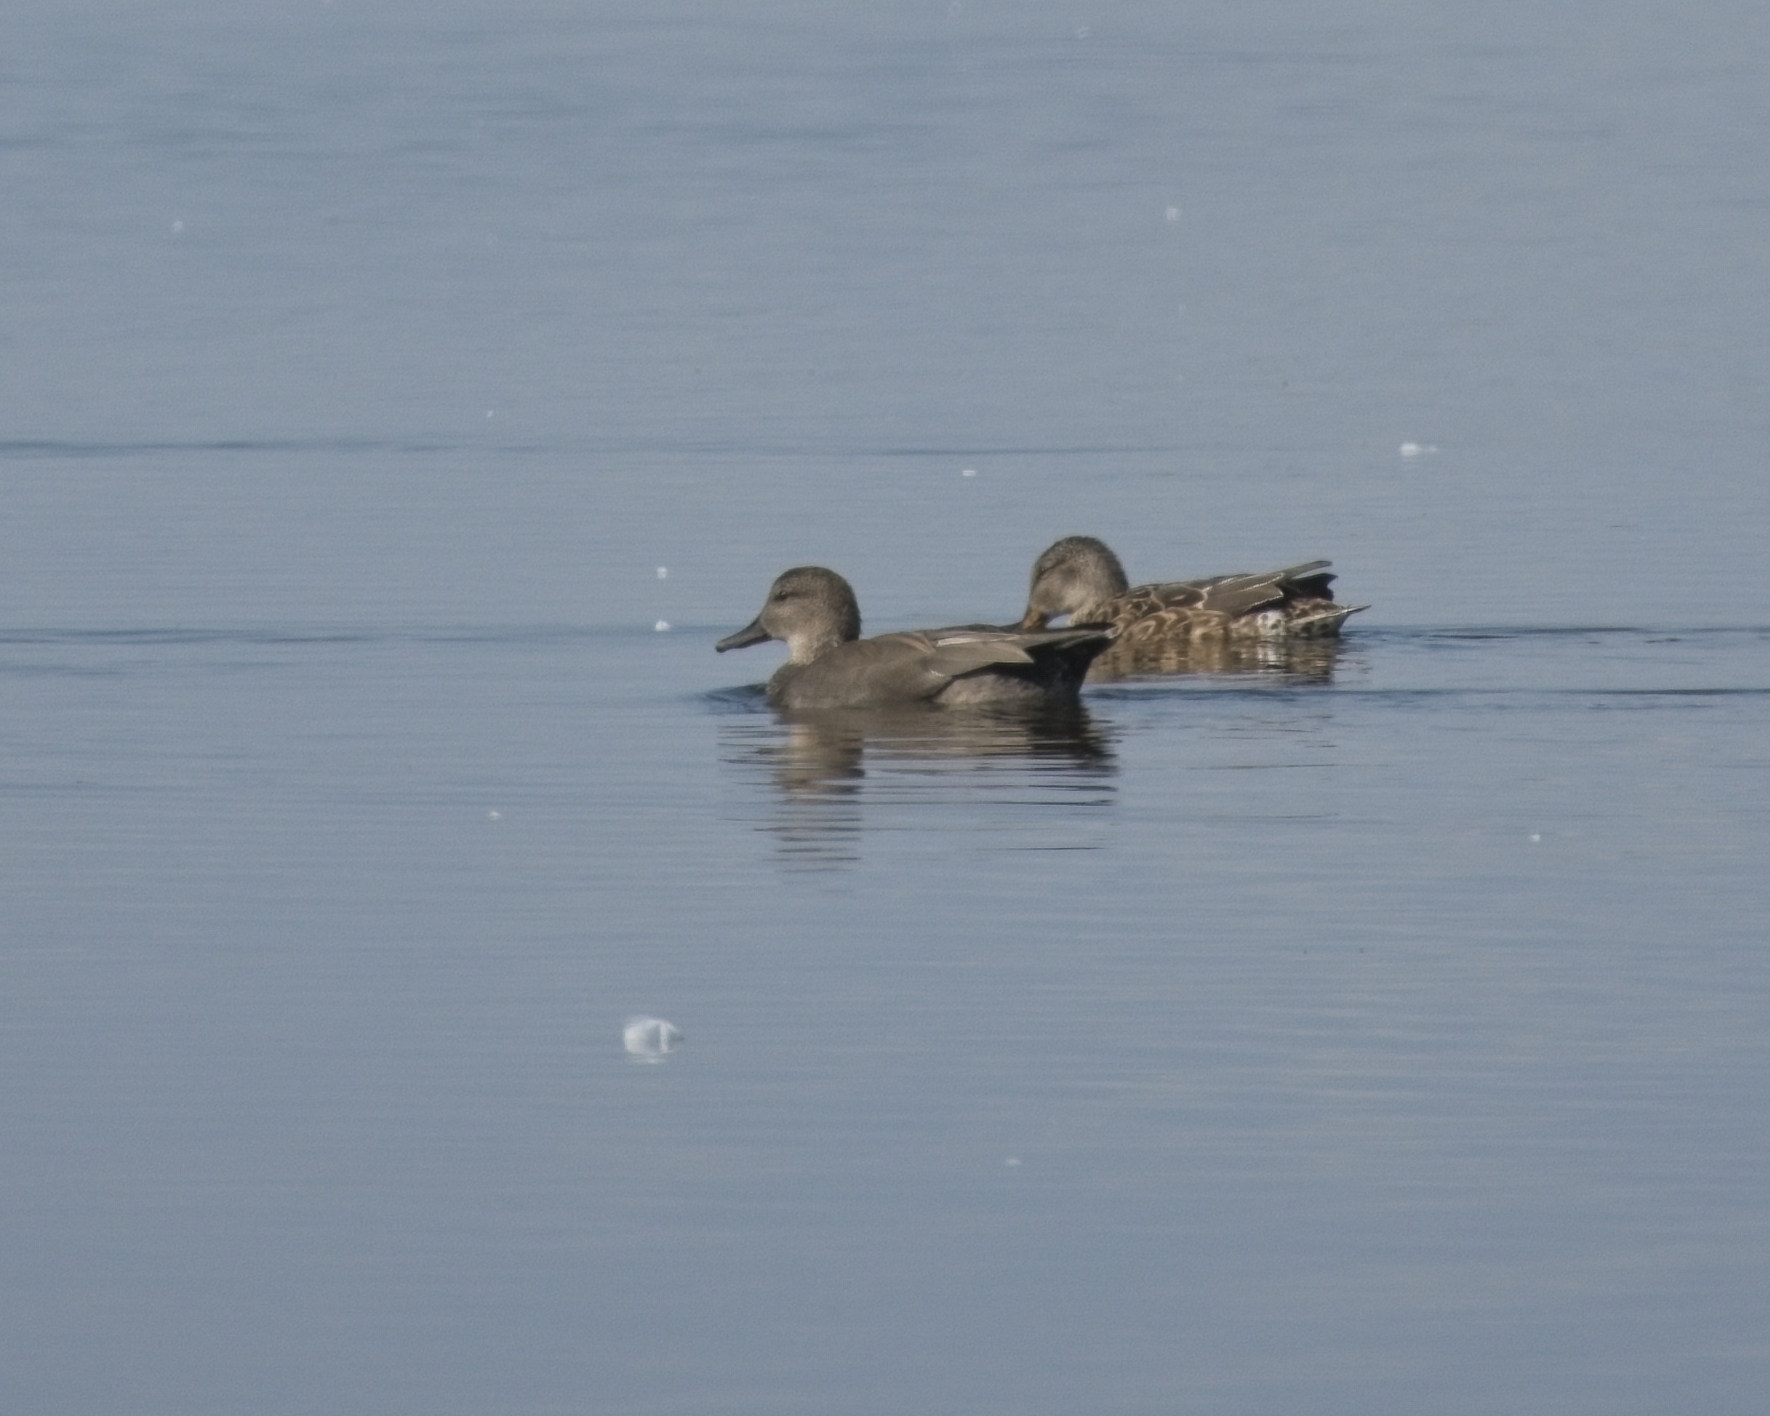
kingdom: Animalia
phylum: Chordata
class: Aves
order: Anseriformes
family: Anatidae
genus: Mareca
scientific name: Mareca strepera
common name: Gadwall
